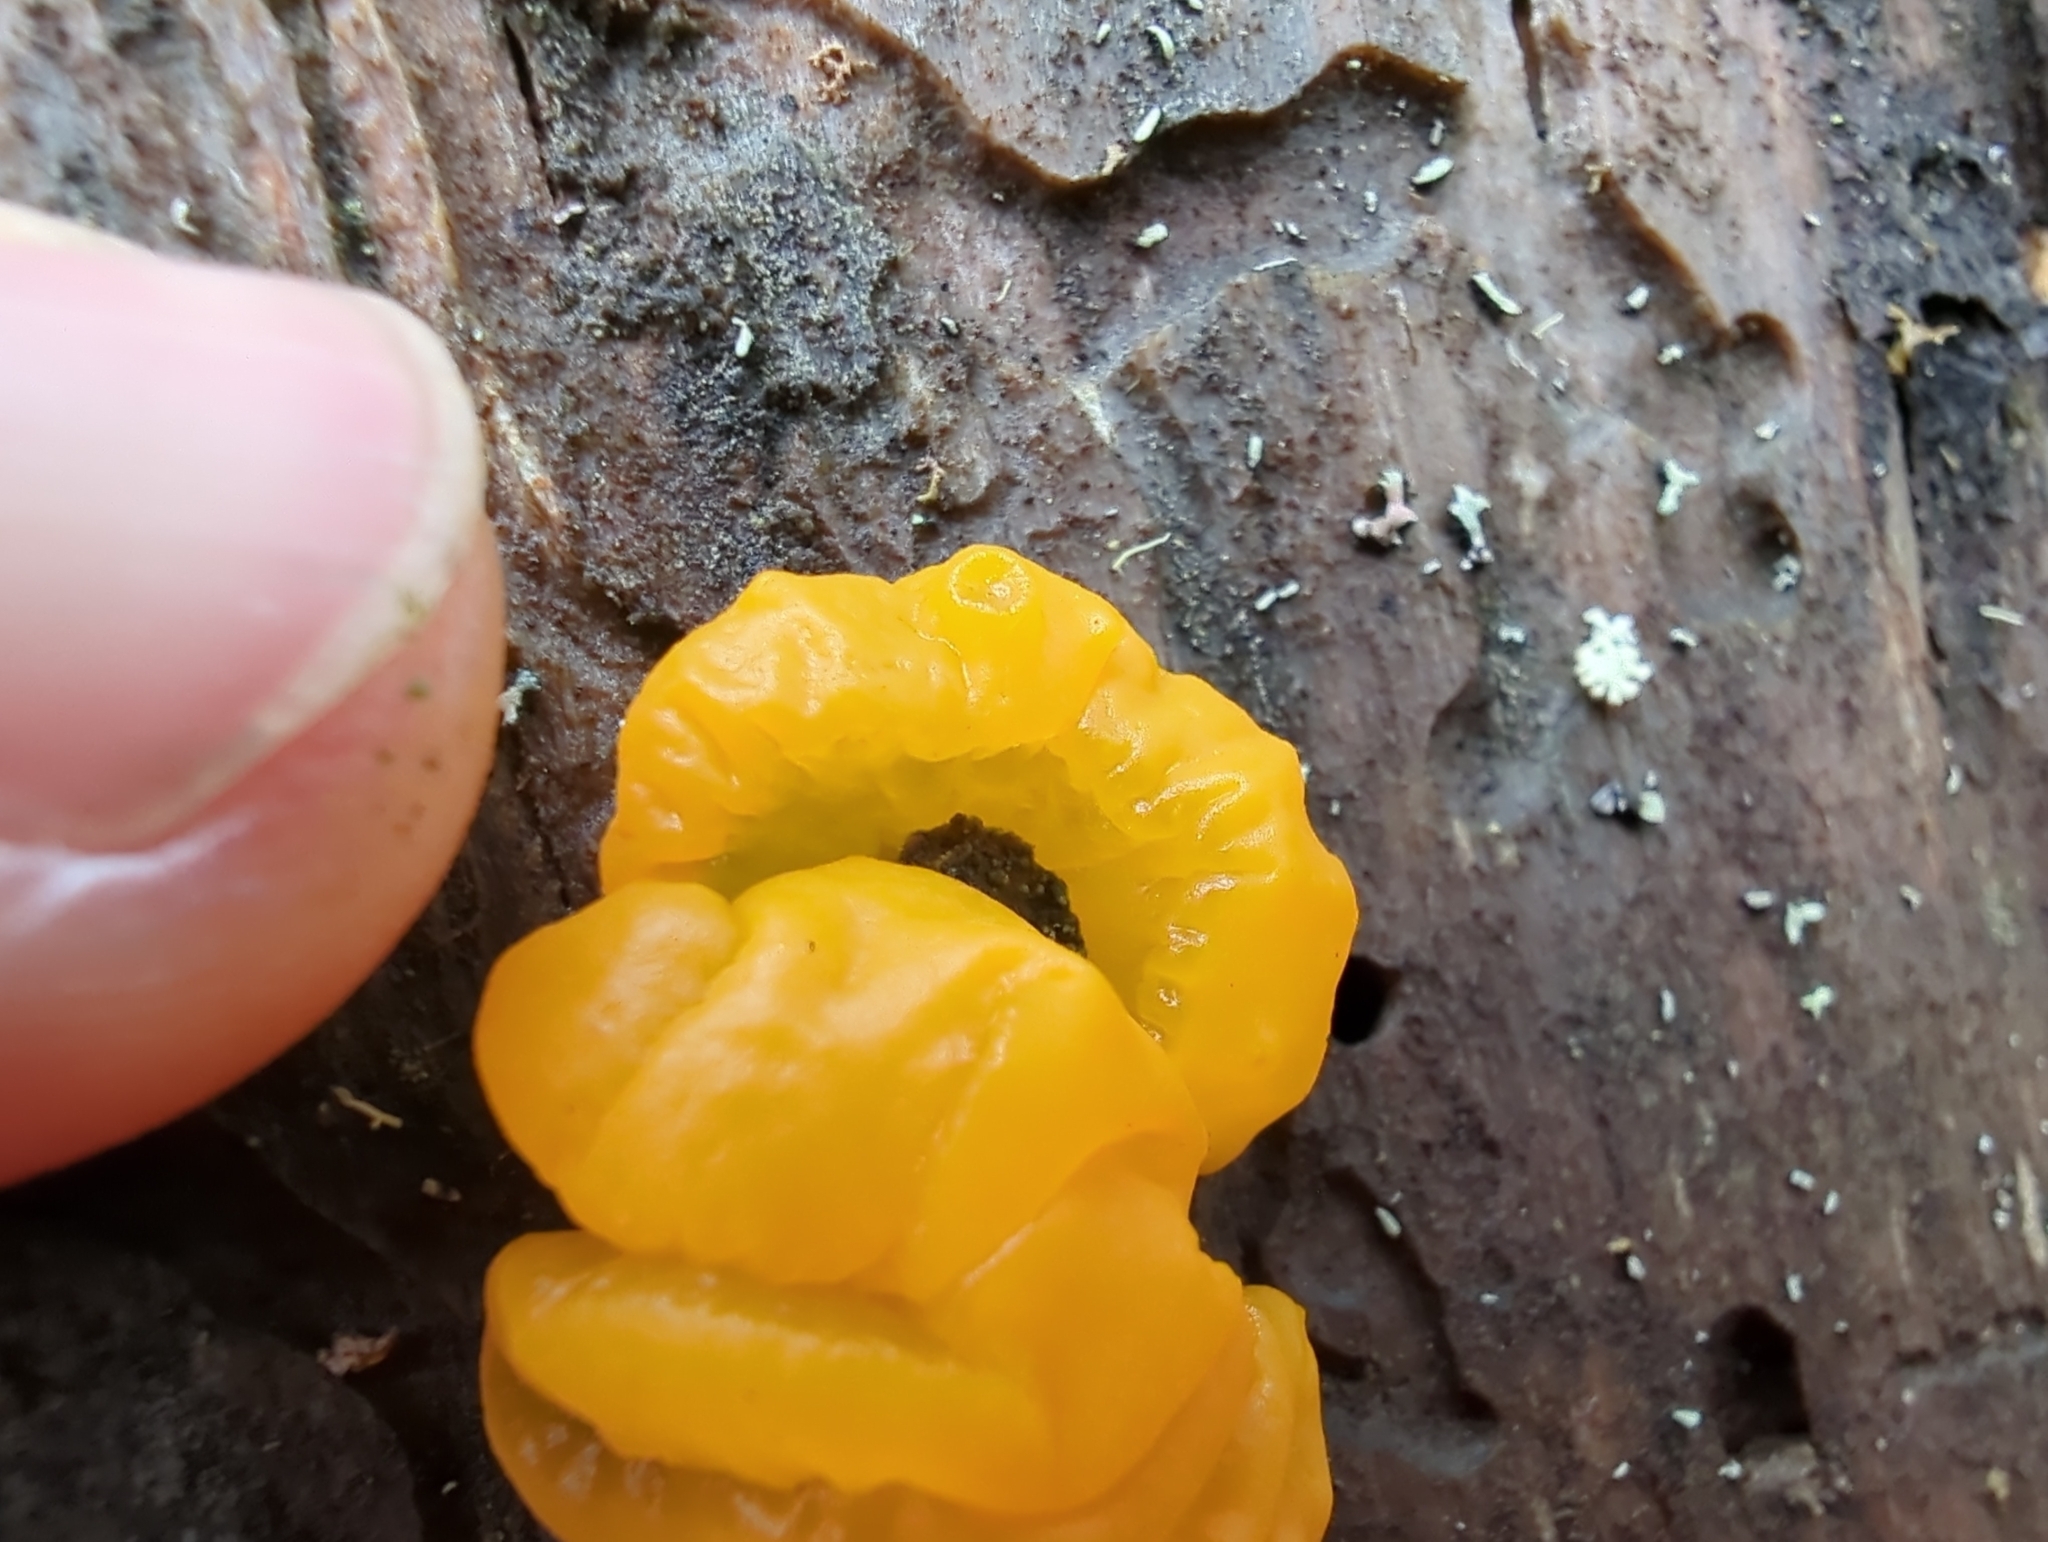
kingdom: Fungi
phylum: Basidiomycota
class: Dacrymycetes
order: Dacrymycetales
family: Dacrymycetaceae
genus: Dacrymyces
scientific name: Dacrymyces chrysospermus
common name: Orange jelly spot
